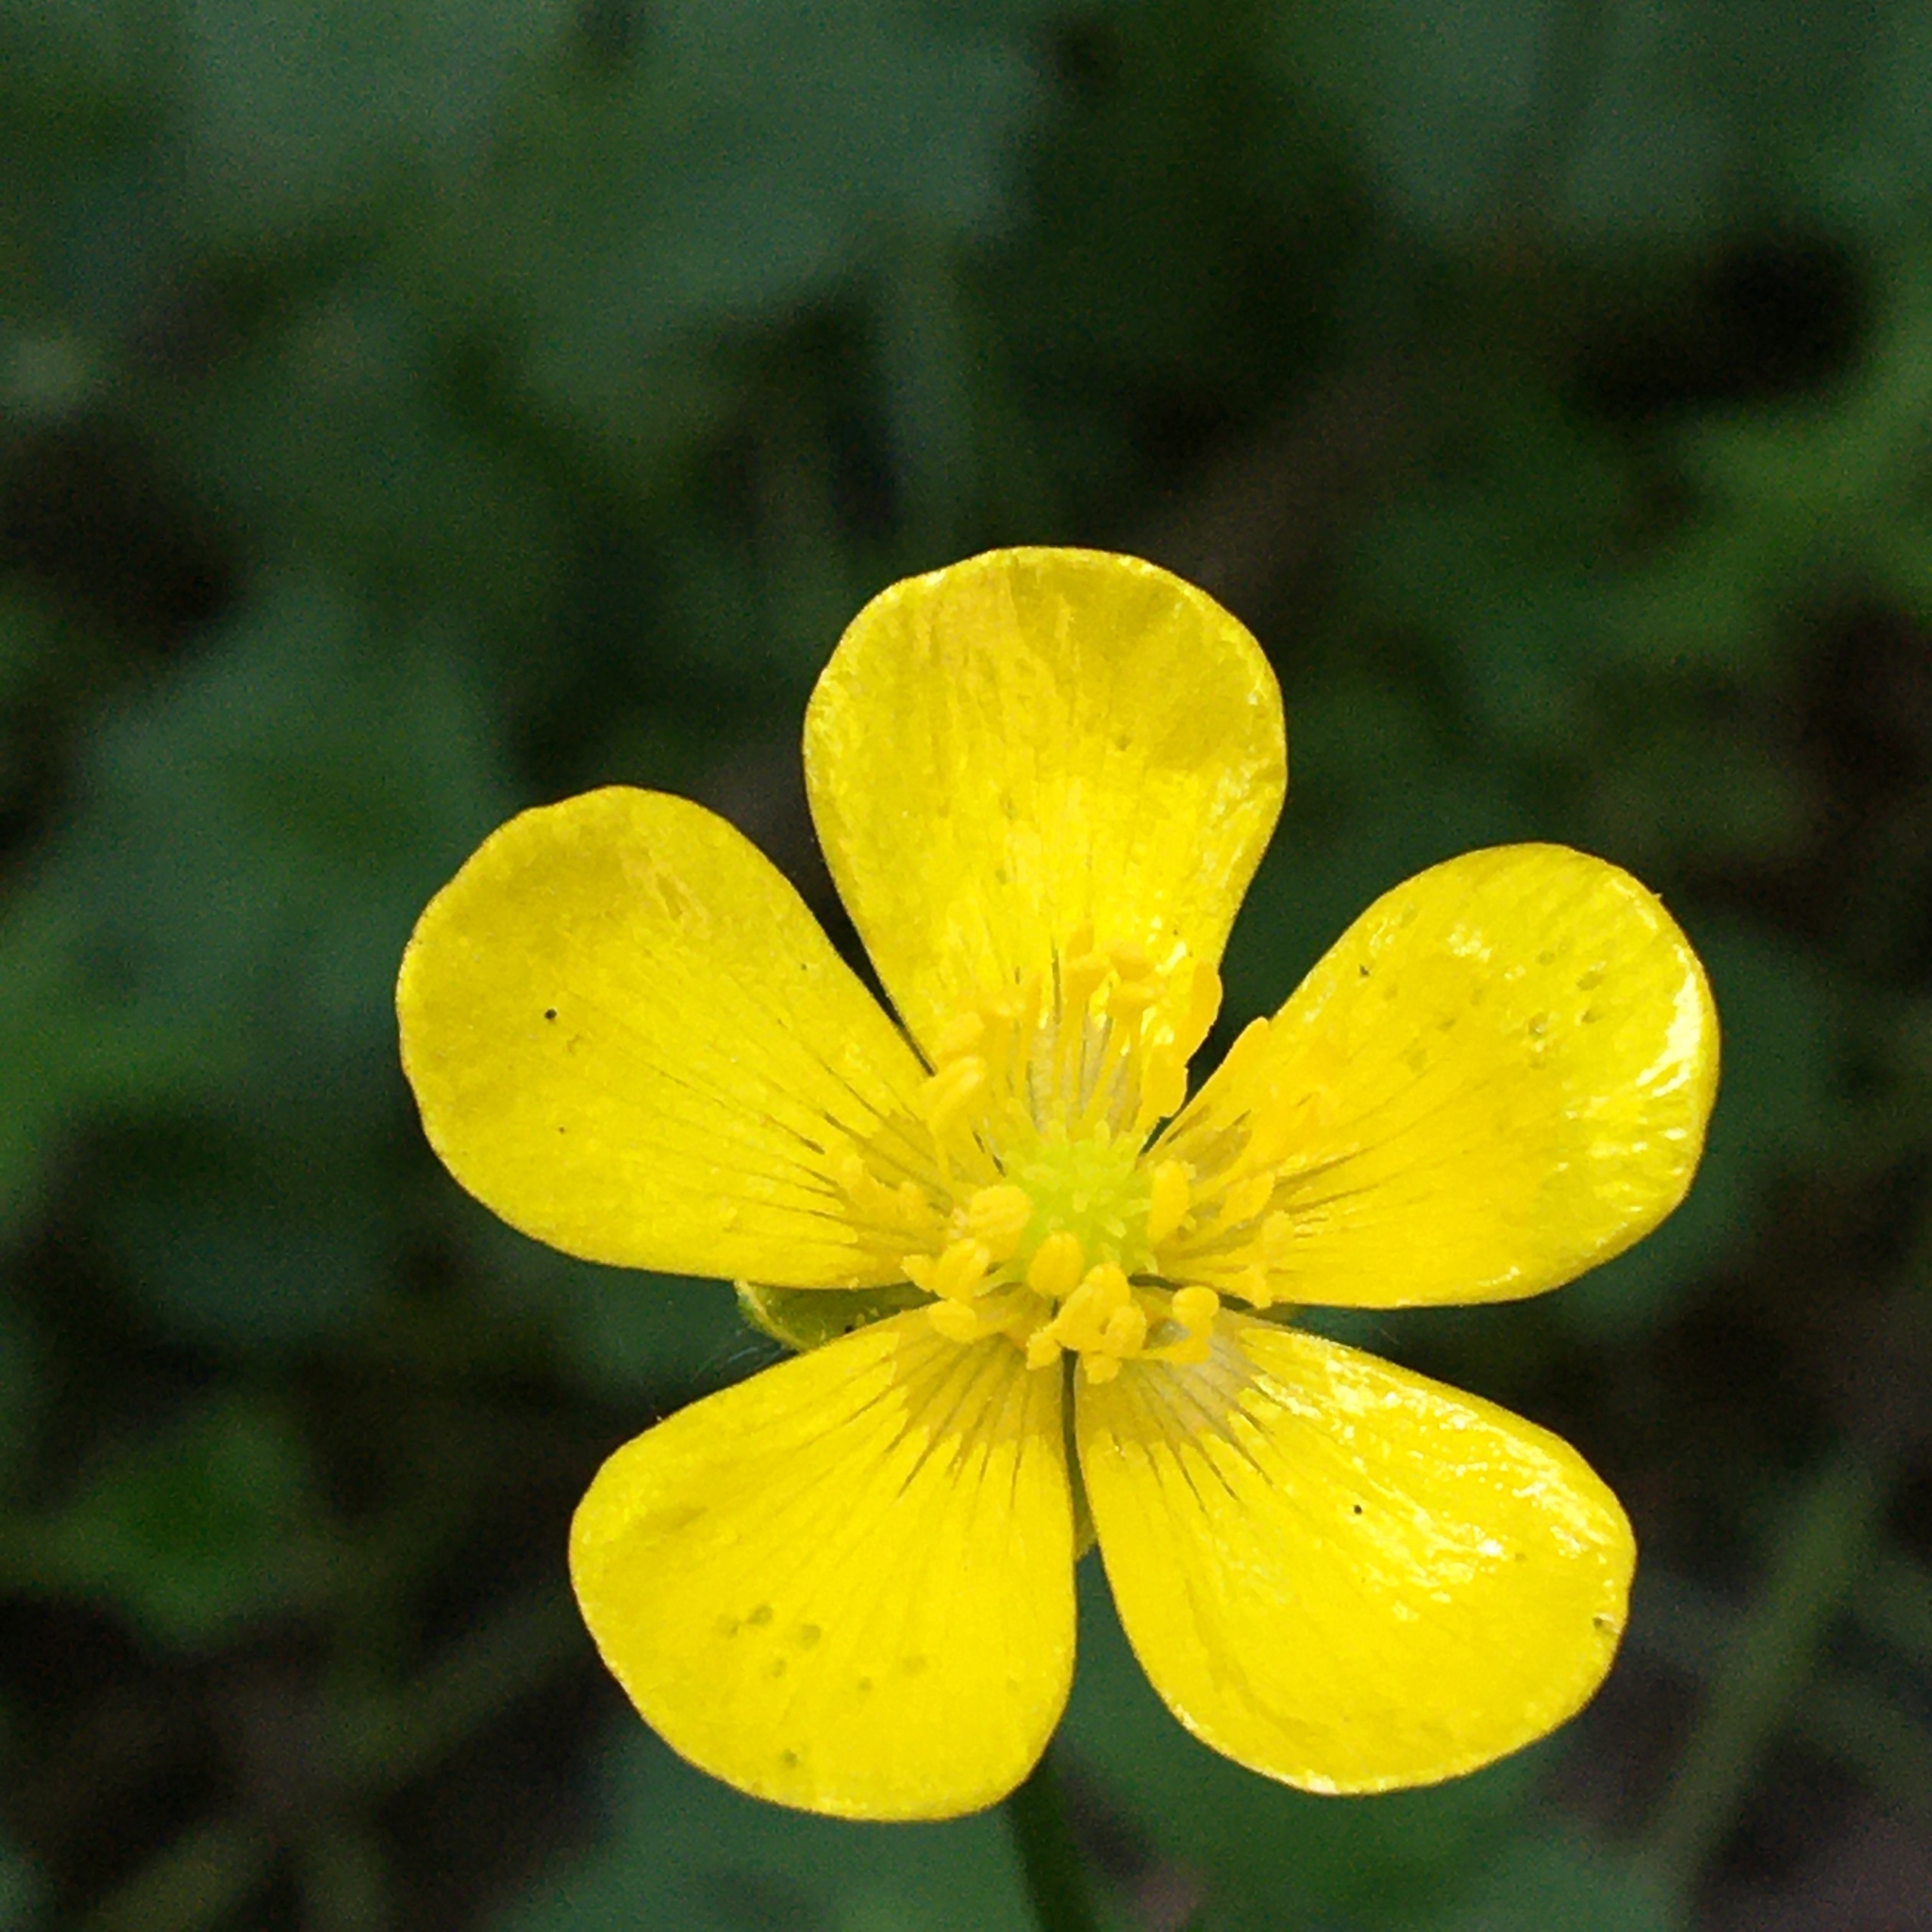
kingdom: Plantae
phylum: Tracheophyta
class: Magnoliopsida
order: Ranunculales
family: Ranunculaceae
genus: Ranunculus
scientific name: Ranunculus repens
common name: Creeping buttercup
